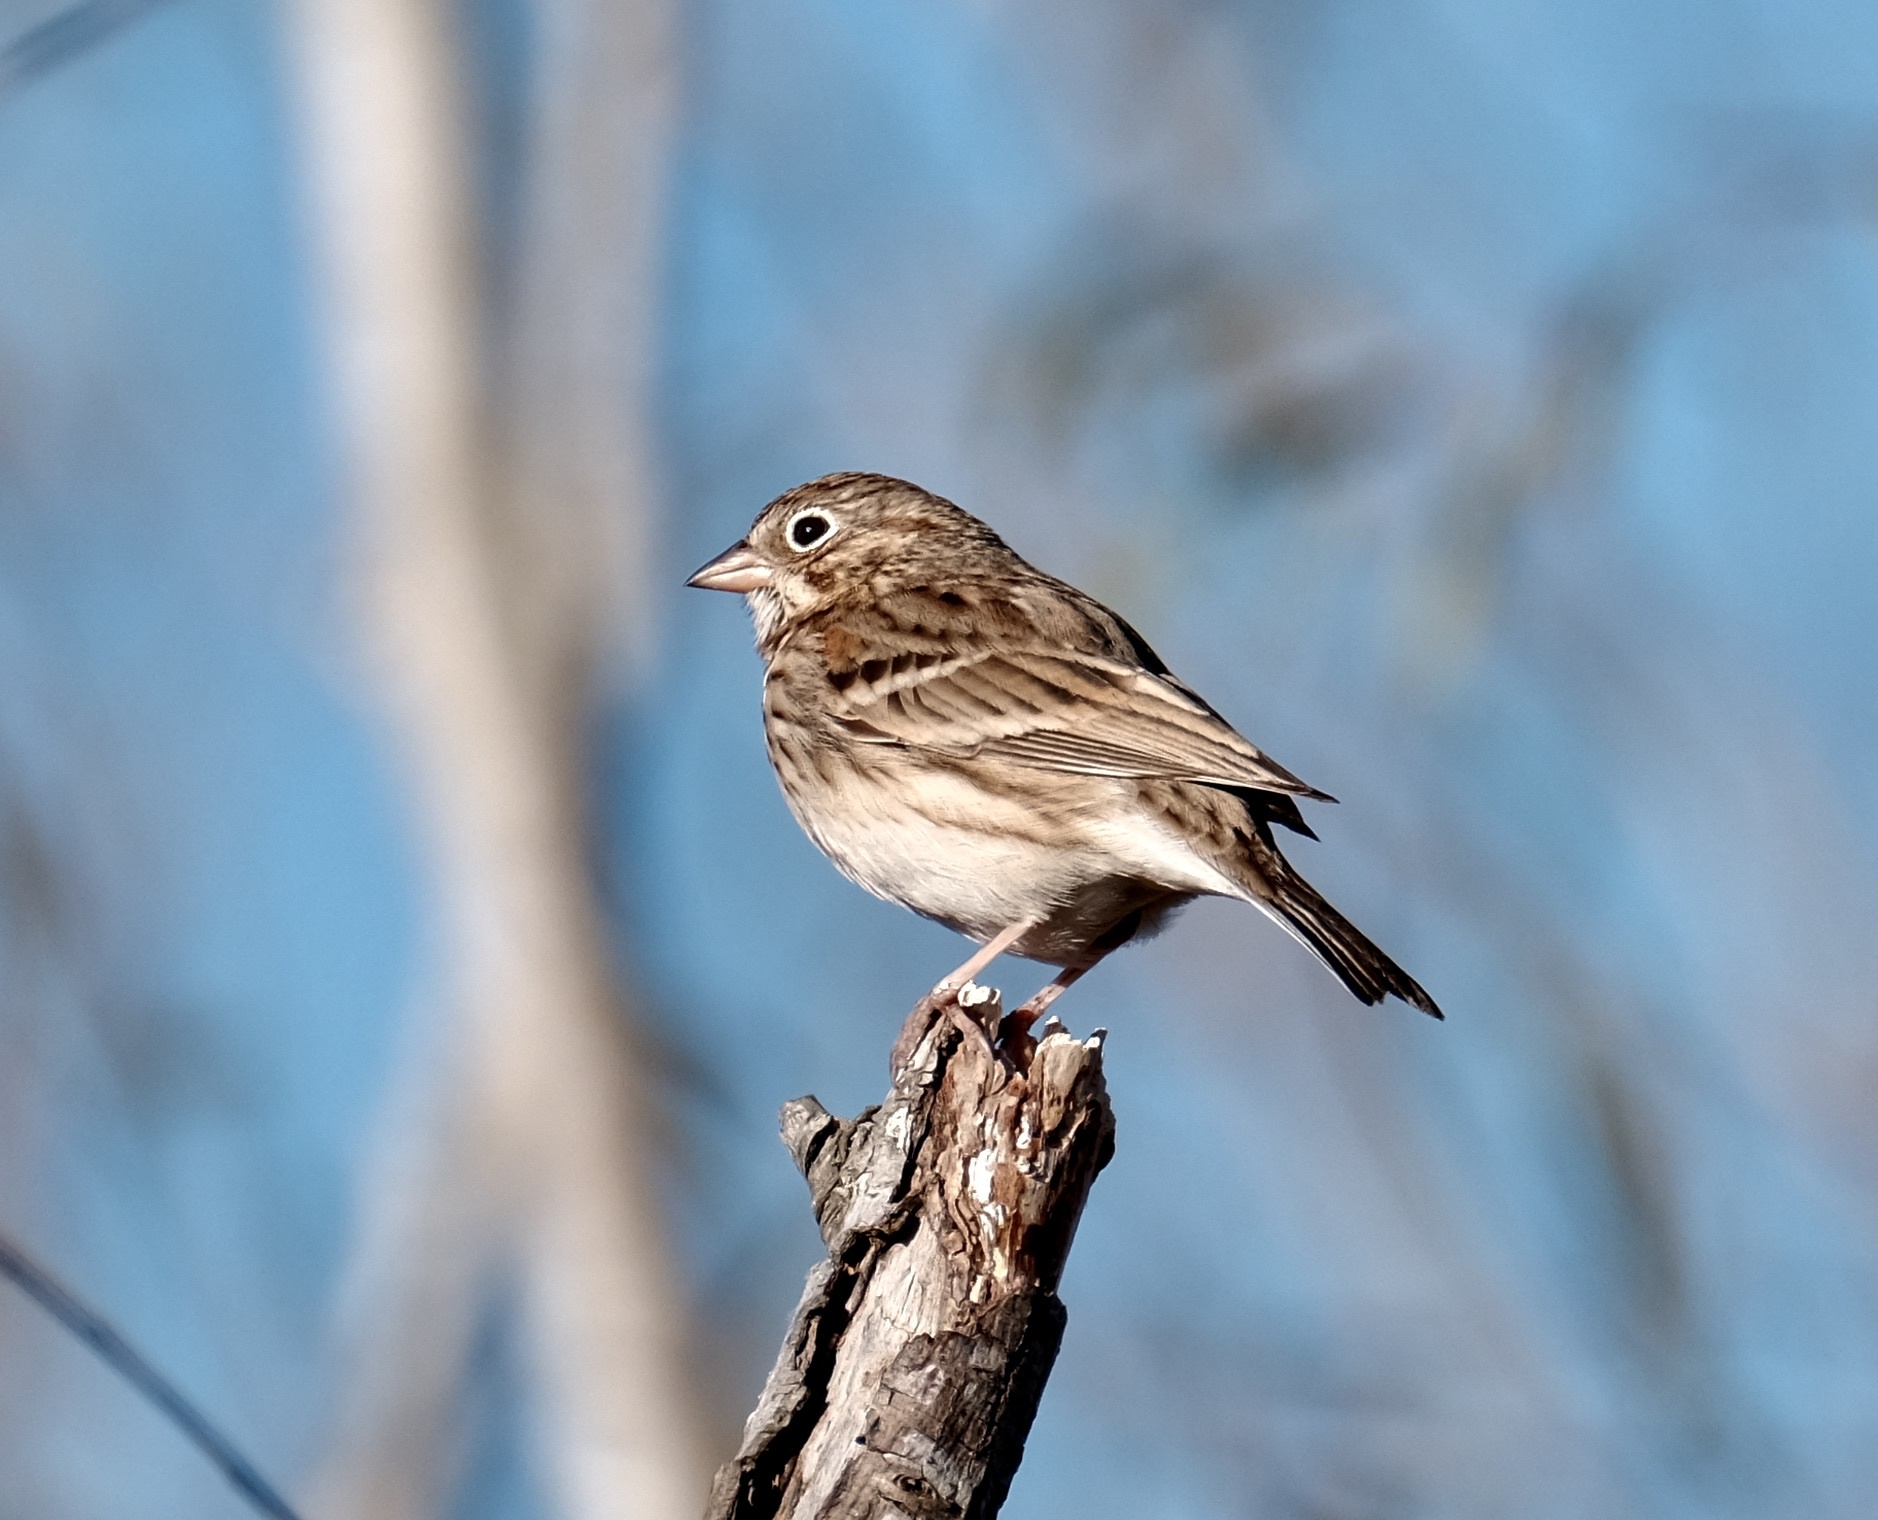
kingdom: Animalia
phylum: Chordata
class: Aves
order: Passeriformes
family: Passerellidae
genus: Pooecetes
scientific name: Pooecetes gramineus
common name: Vesper sparrow
